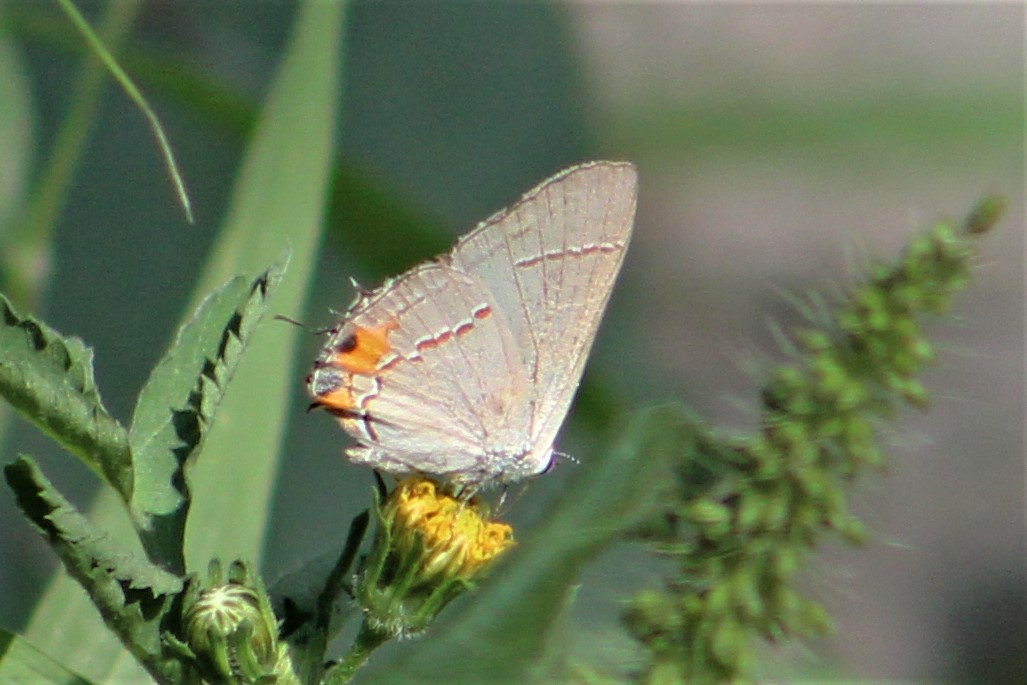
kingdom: Animalia
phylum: Arthropoda
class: Insecta
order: Lepidoptera
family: Lycaenidae
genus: Strymon
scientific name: Strymon melinus
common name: Gray hairstreak
